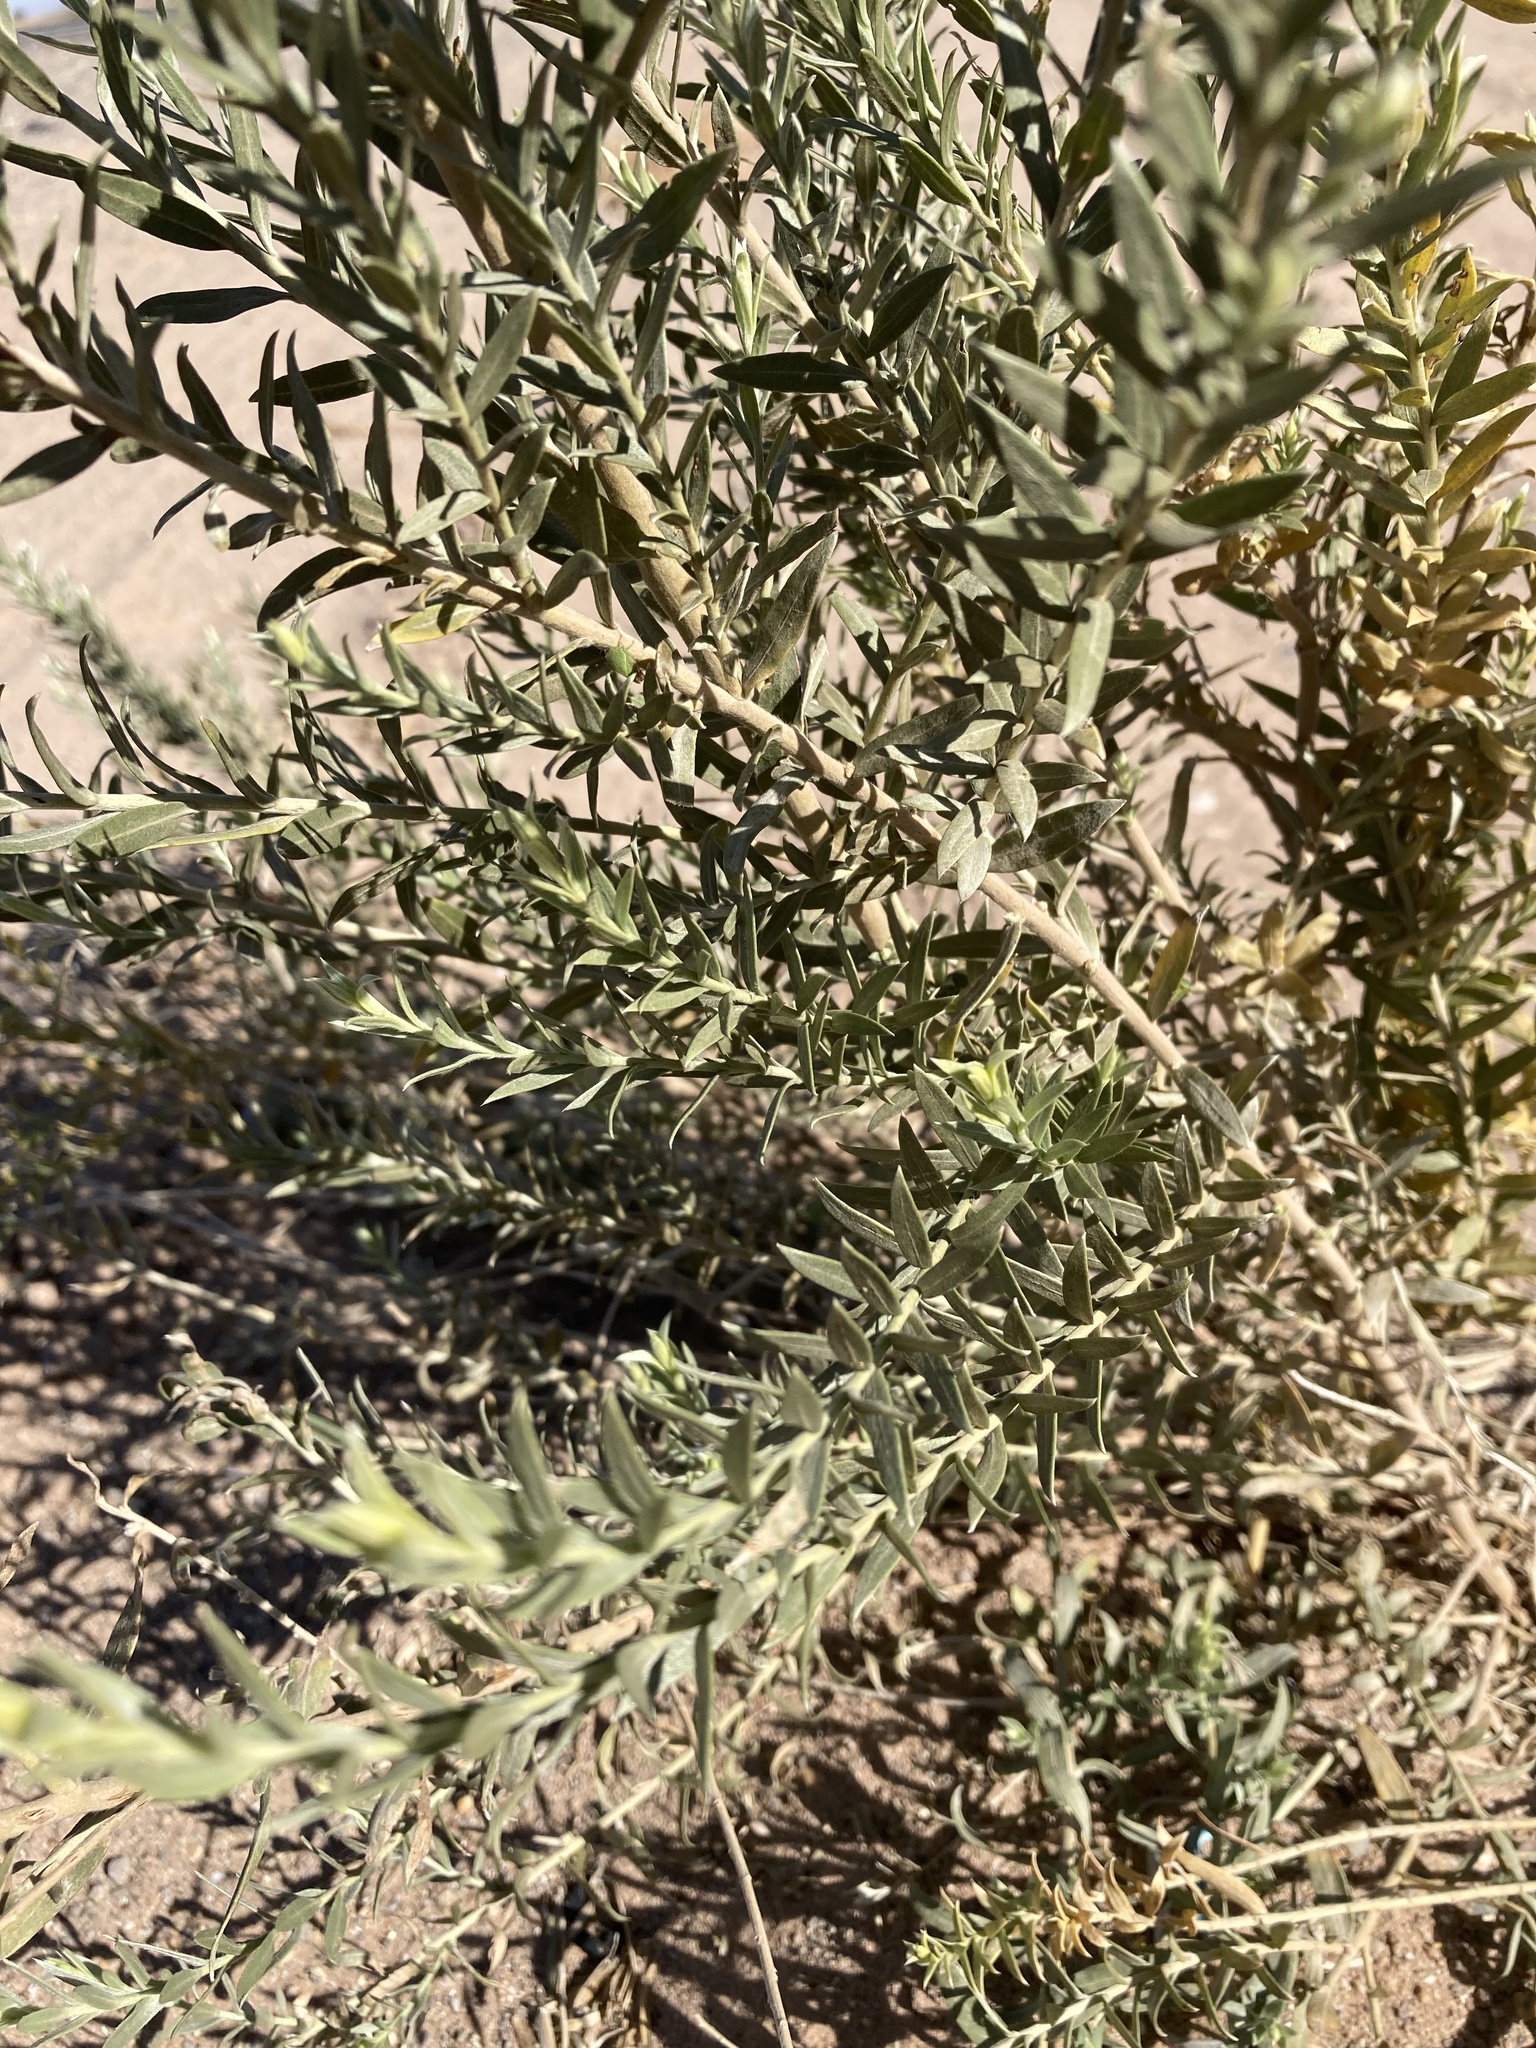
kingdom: Plantae
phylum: Tracheophyta
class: Magnoliopsida
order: Asterales
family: Asteraceae
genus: Pluchea
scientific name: Pluchea sericea
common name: Arrow-weed
